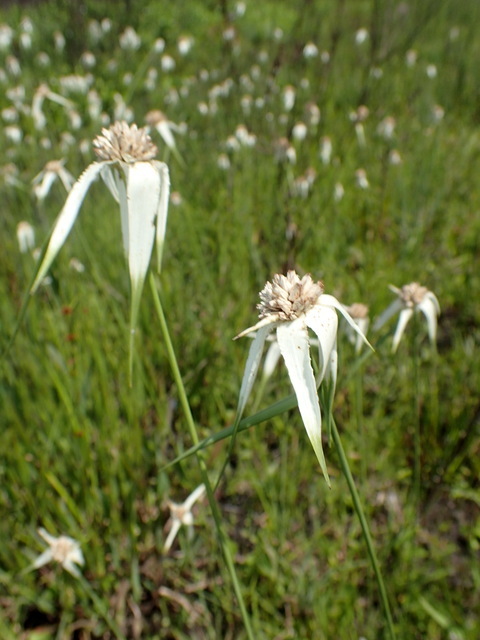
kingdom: Plantae
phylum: Tracheophyta
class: Liliopsida
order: Poales
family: Cyperaceae
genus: Rhynchospora
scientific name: Rhynchospora latifolia
